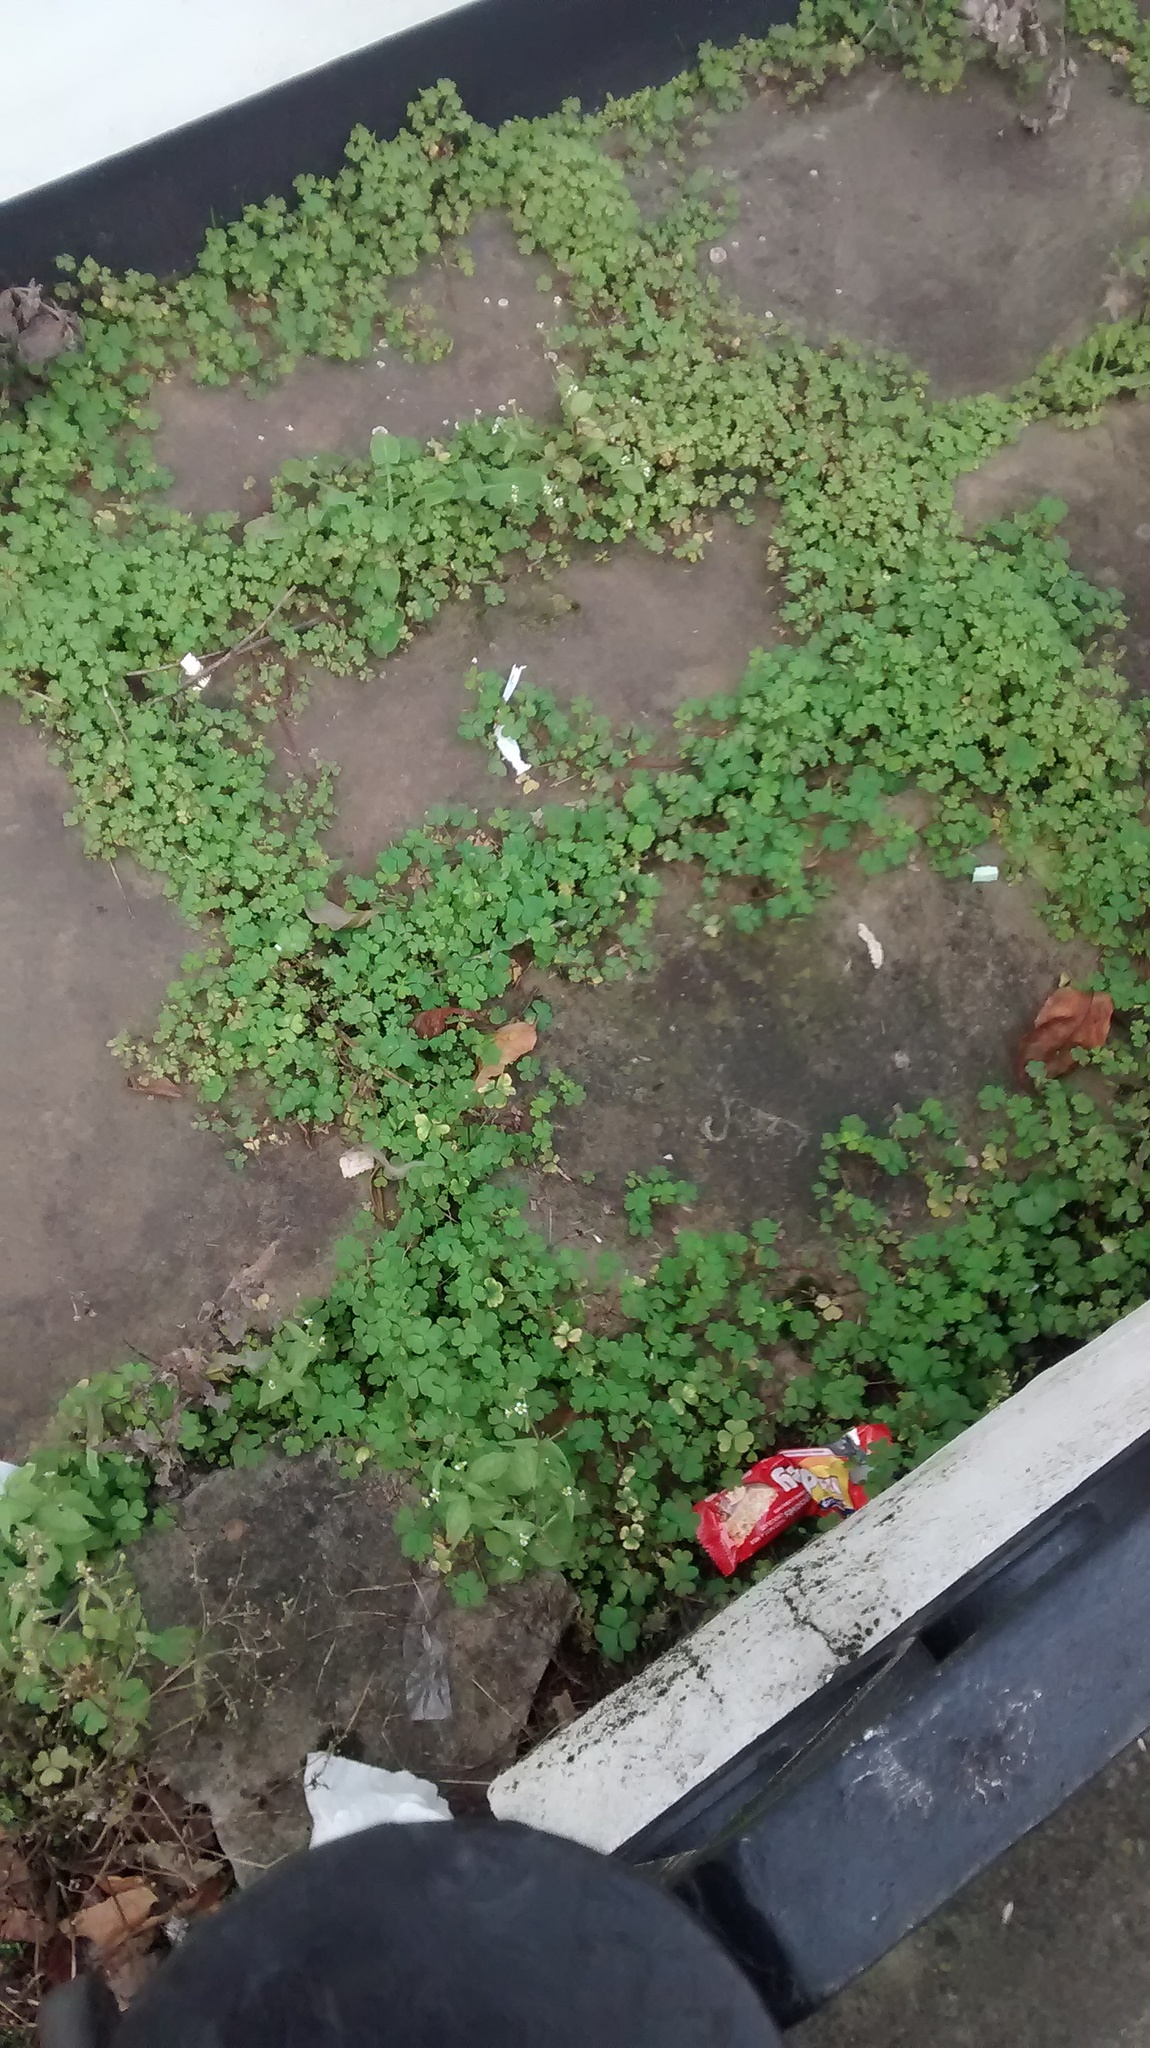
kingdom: Plantae
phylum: Tracheophyta
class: Magnoliopsida
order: Oxalidales
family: Oxalidaceae
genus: Oxalis
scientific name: Oxalis corniculata
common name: Procumbent yellow-sorrel
